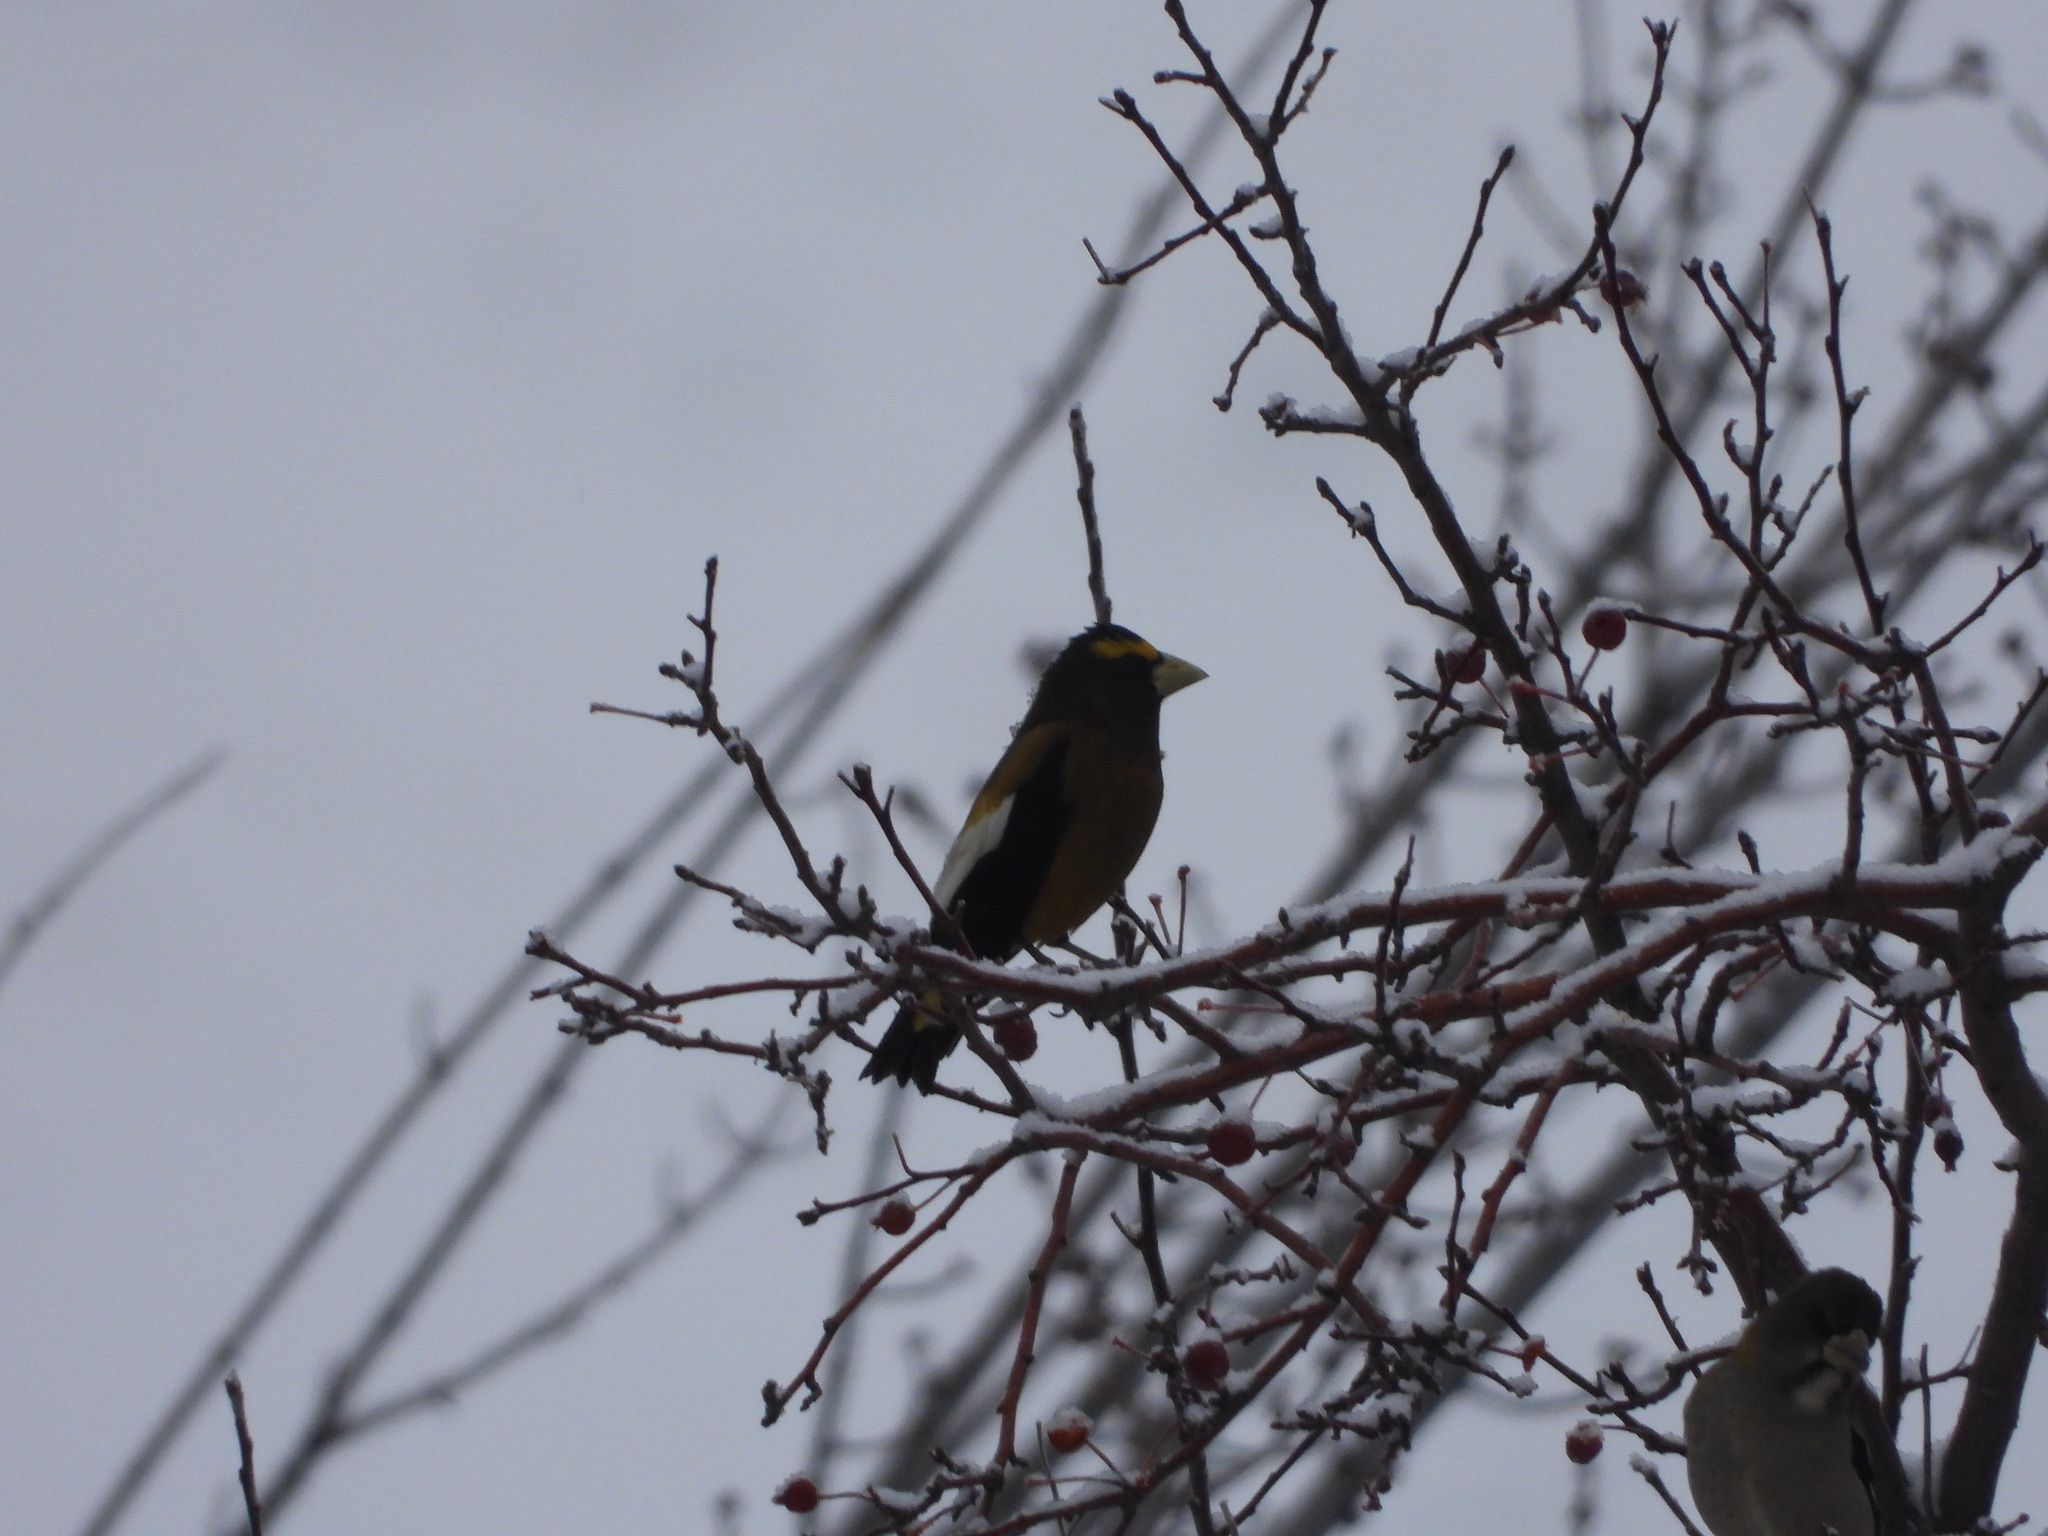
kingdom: Animalia
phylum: Chordata
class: Aves
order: Passeriformes
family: Fringillidae
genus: Hesperiphona
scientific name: Hesperiphona vespertina
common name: Evening grosbeak
